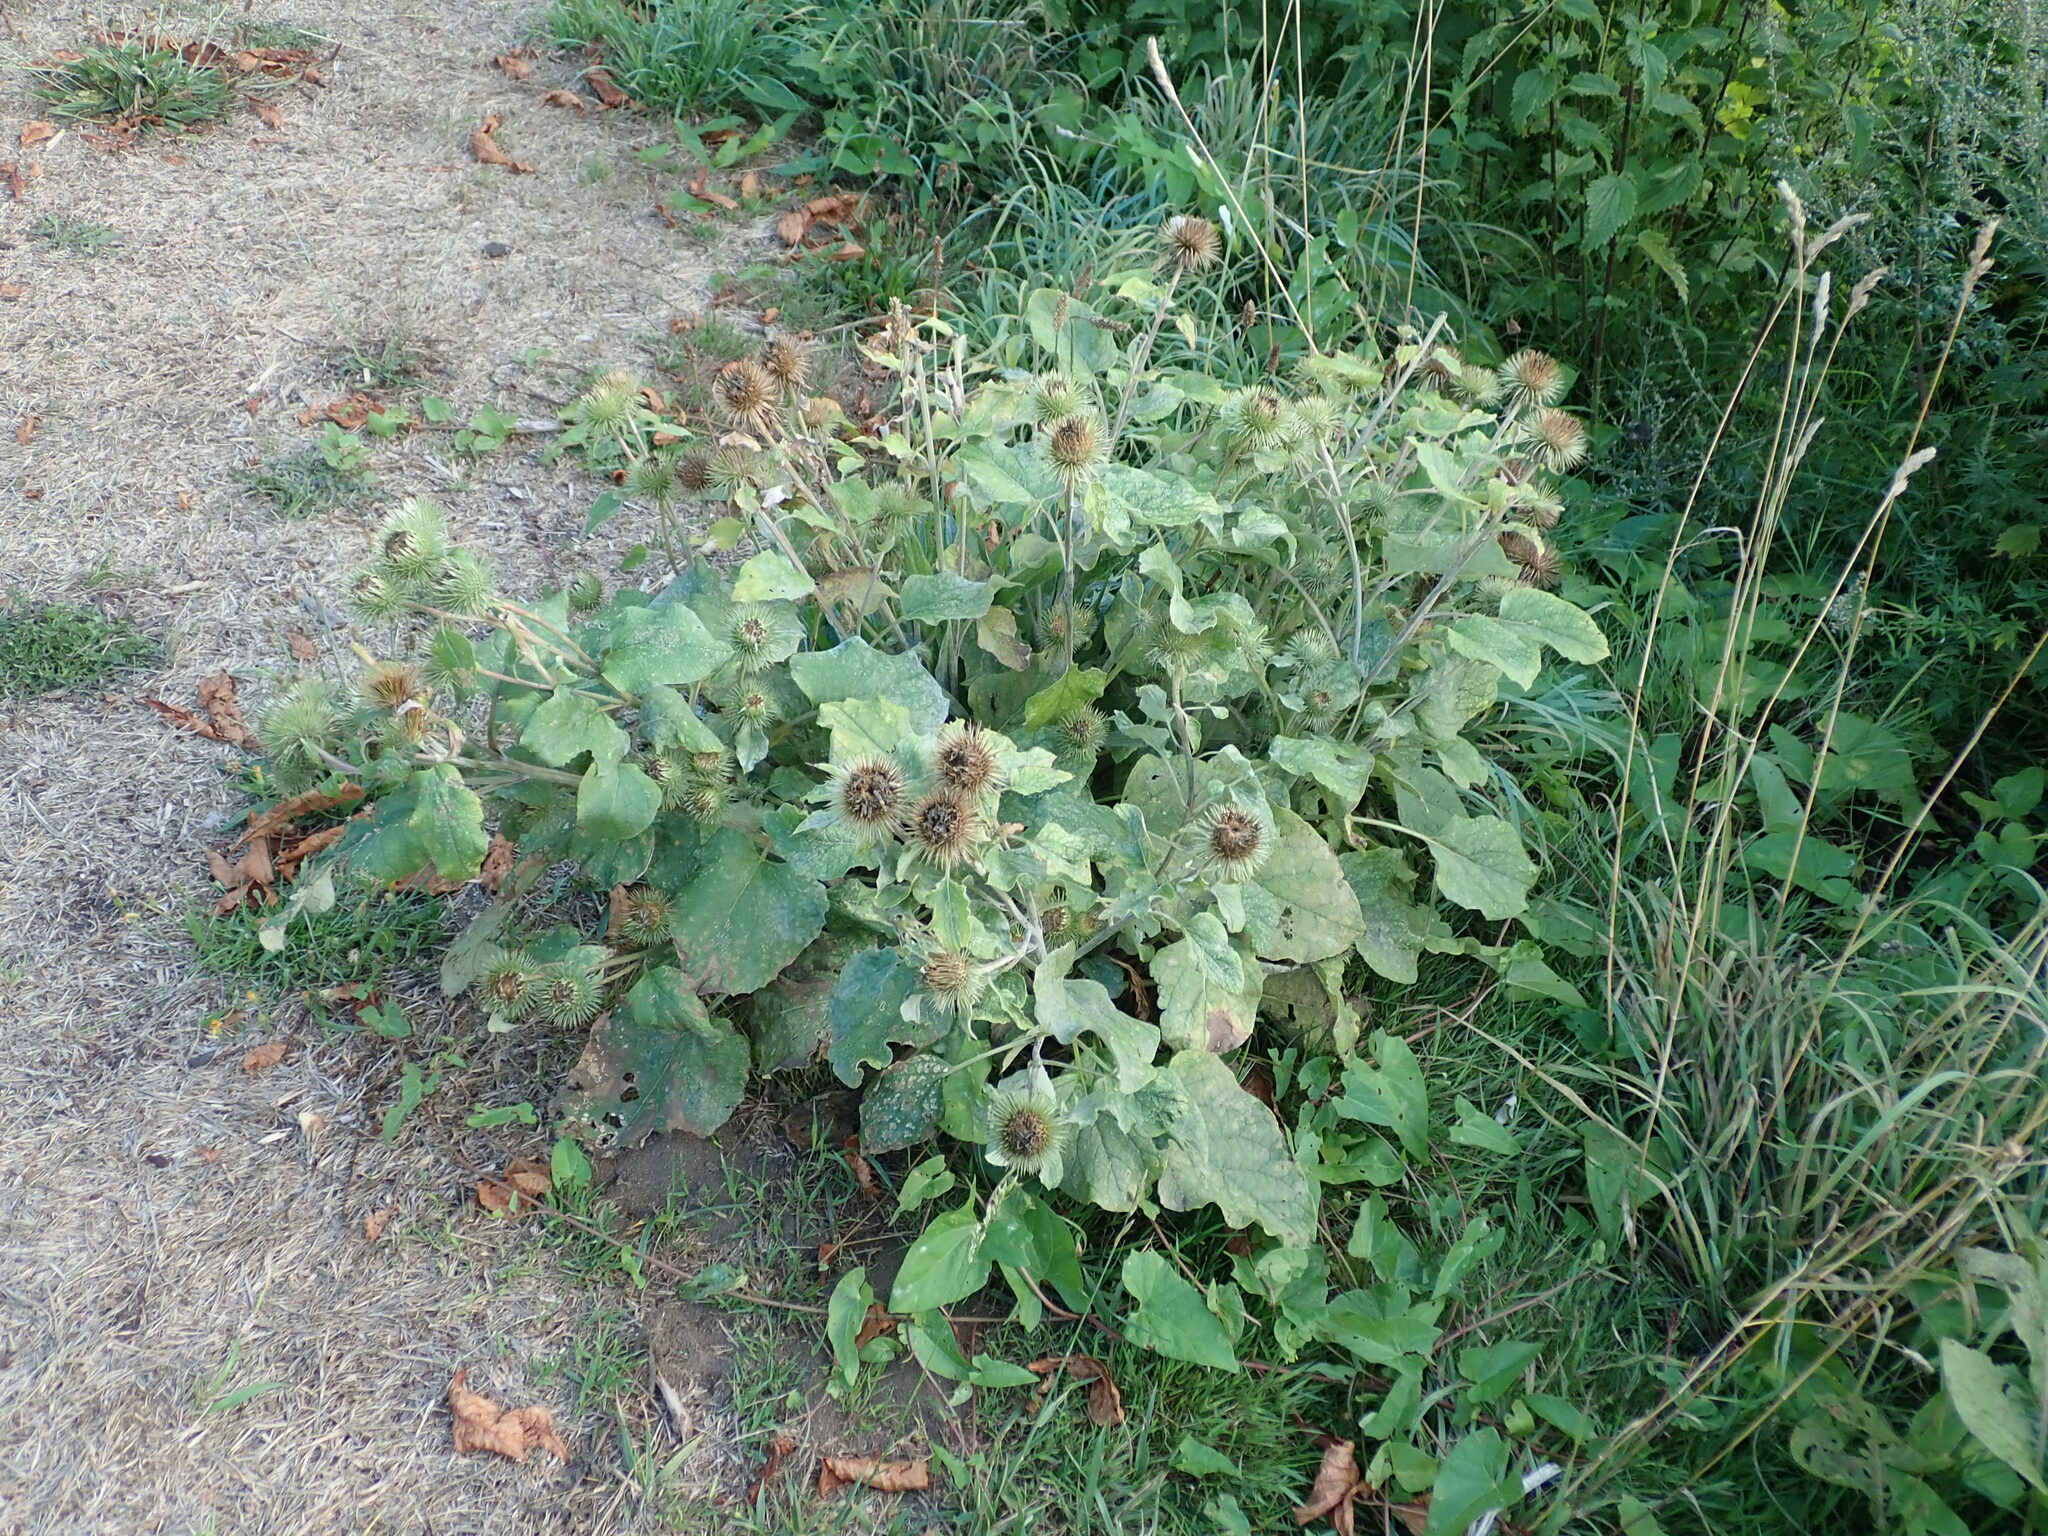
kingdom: Plantae
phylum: Tracheophyta
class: Magnoliopsida
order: Asterales
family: Asteraceae
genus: Arctium
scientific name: Arctium lappa
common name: Greater burdock
